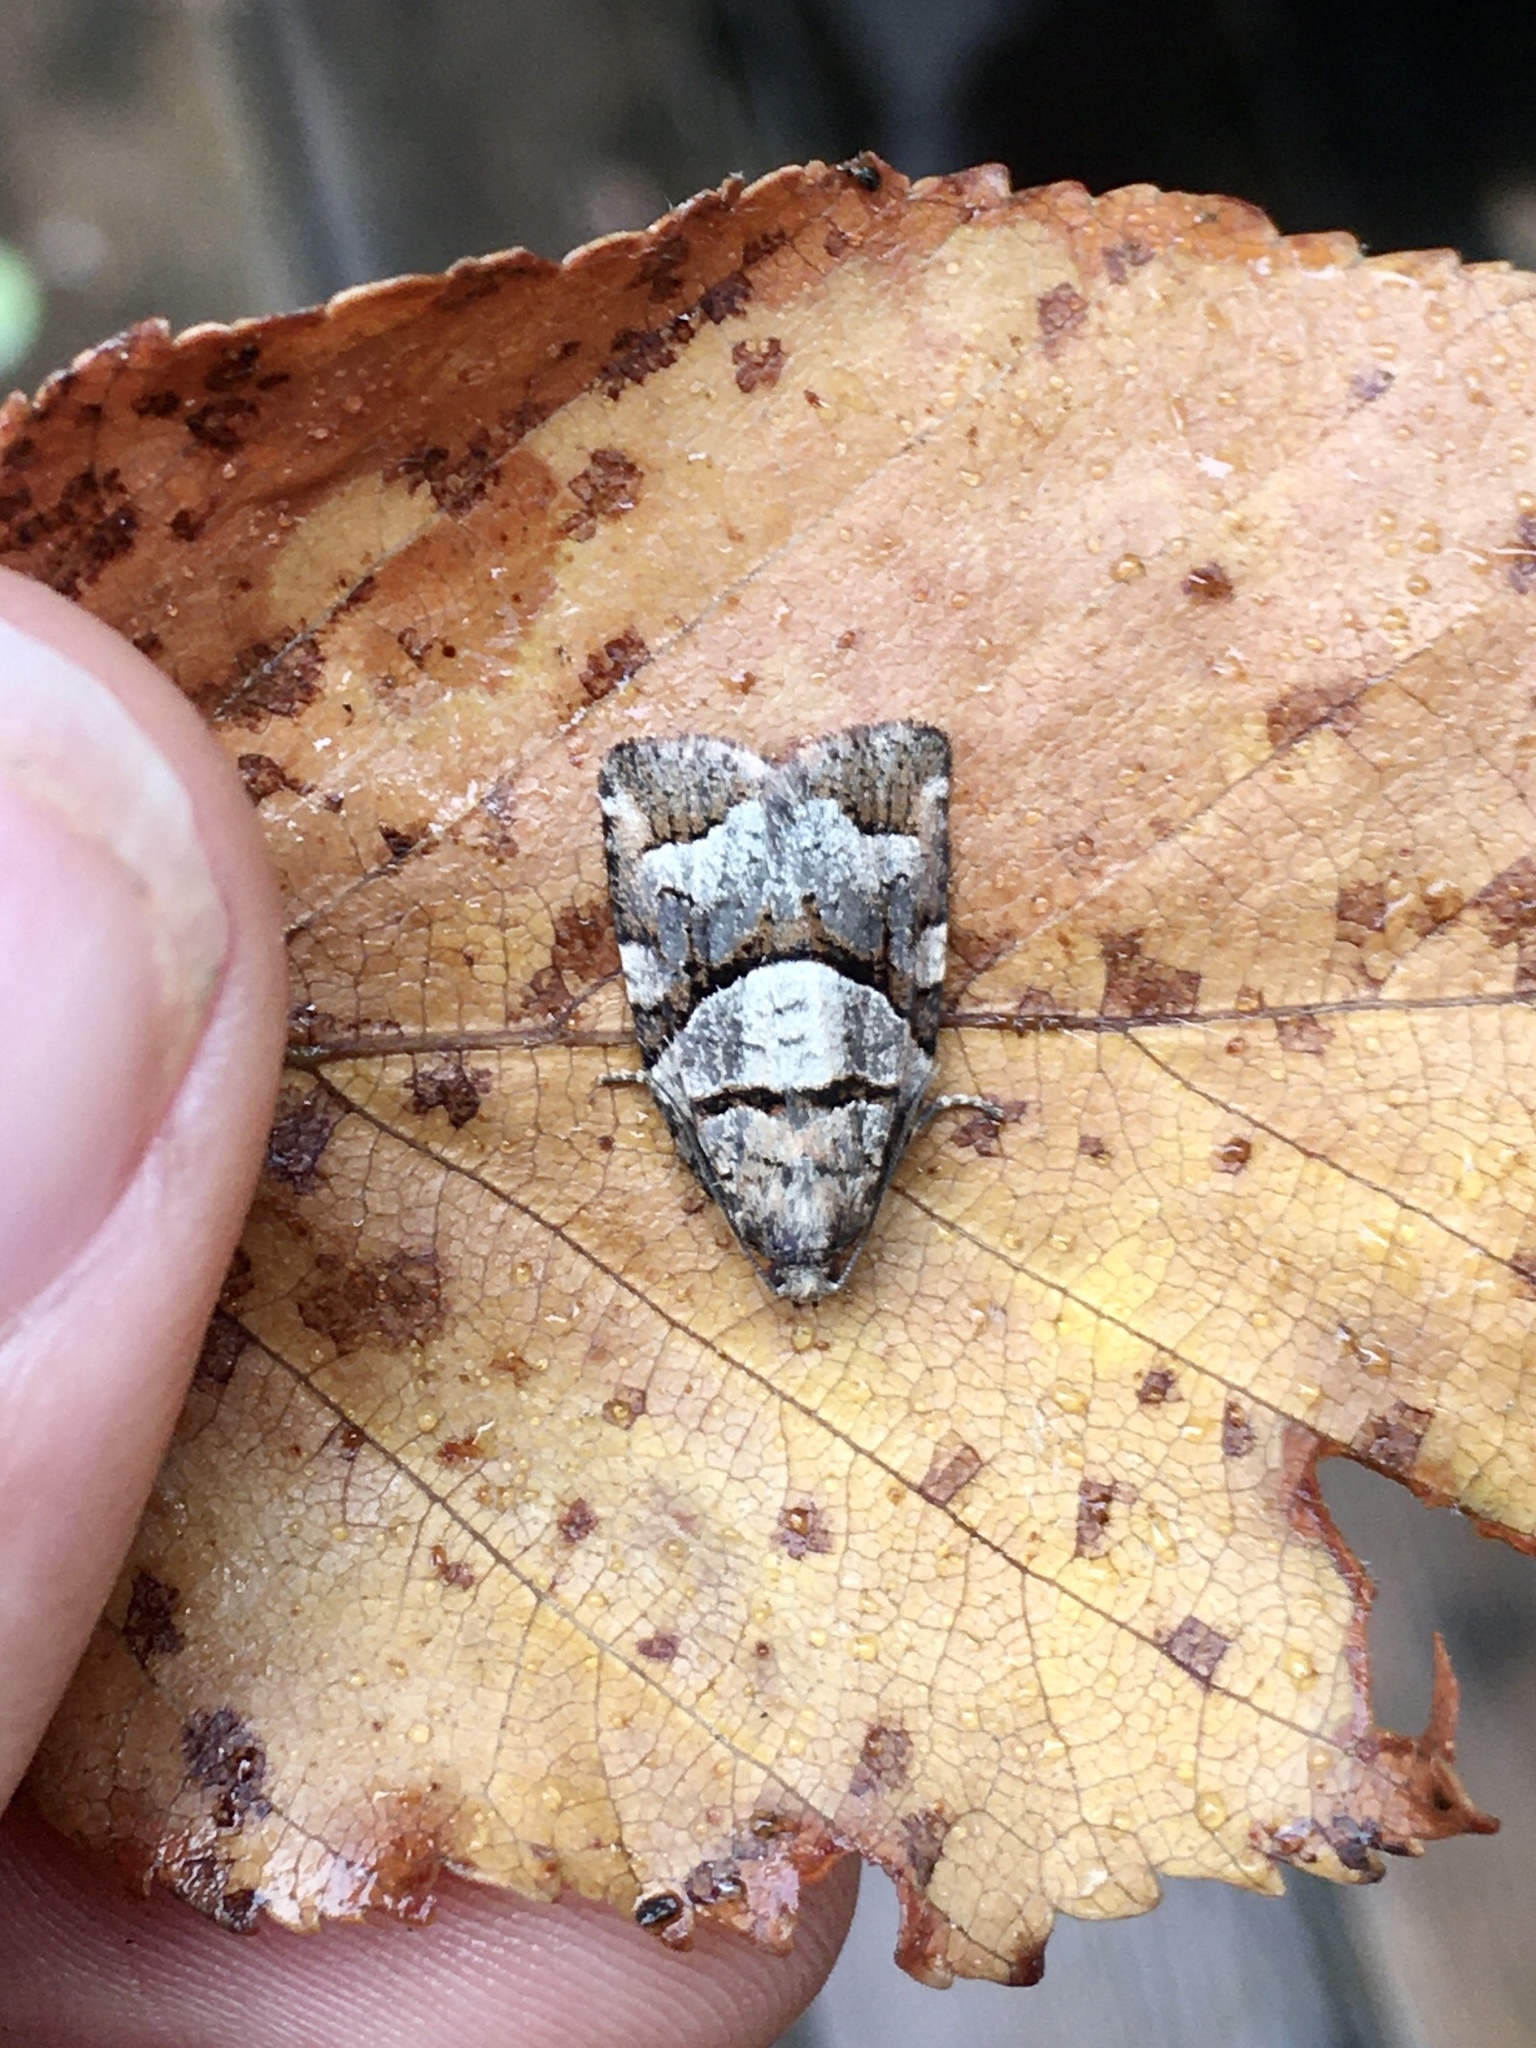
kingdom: Animalia
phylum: Arthropoda
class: Insecta
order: Lepidoptera
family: Tortricidae
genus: Archips
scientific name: Archips alberta
